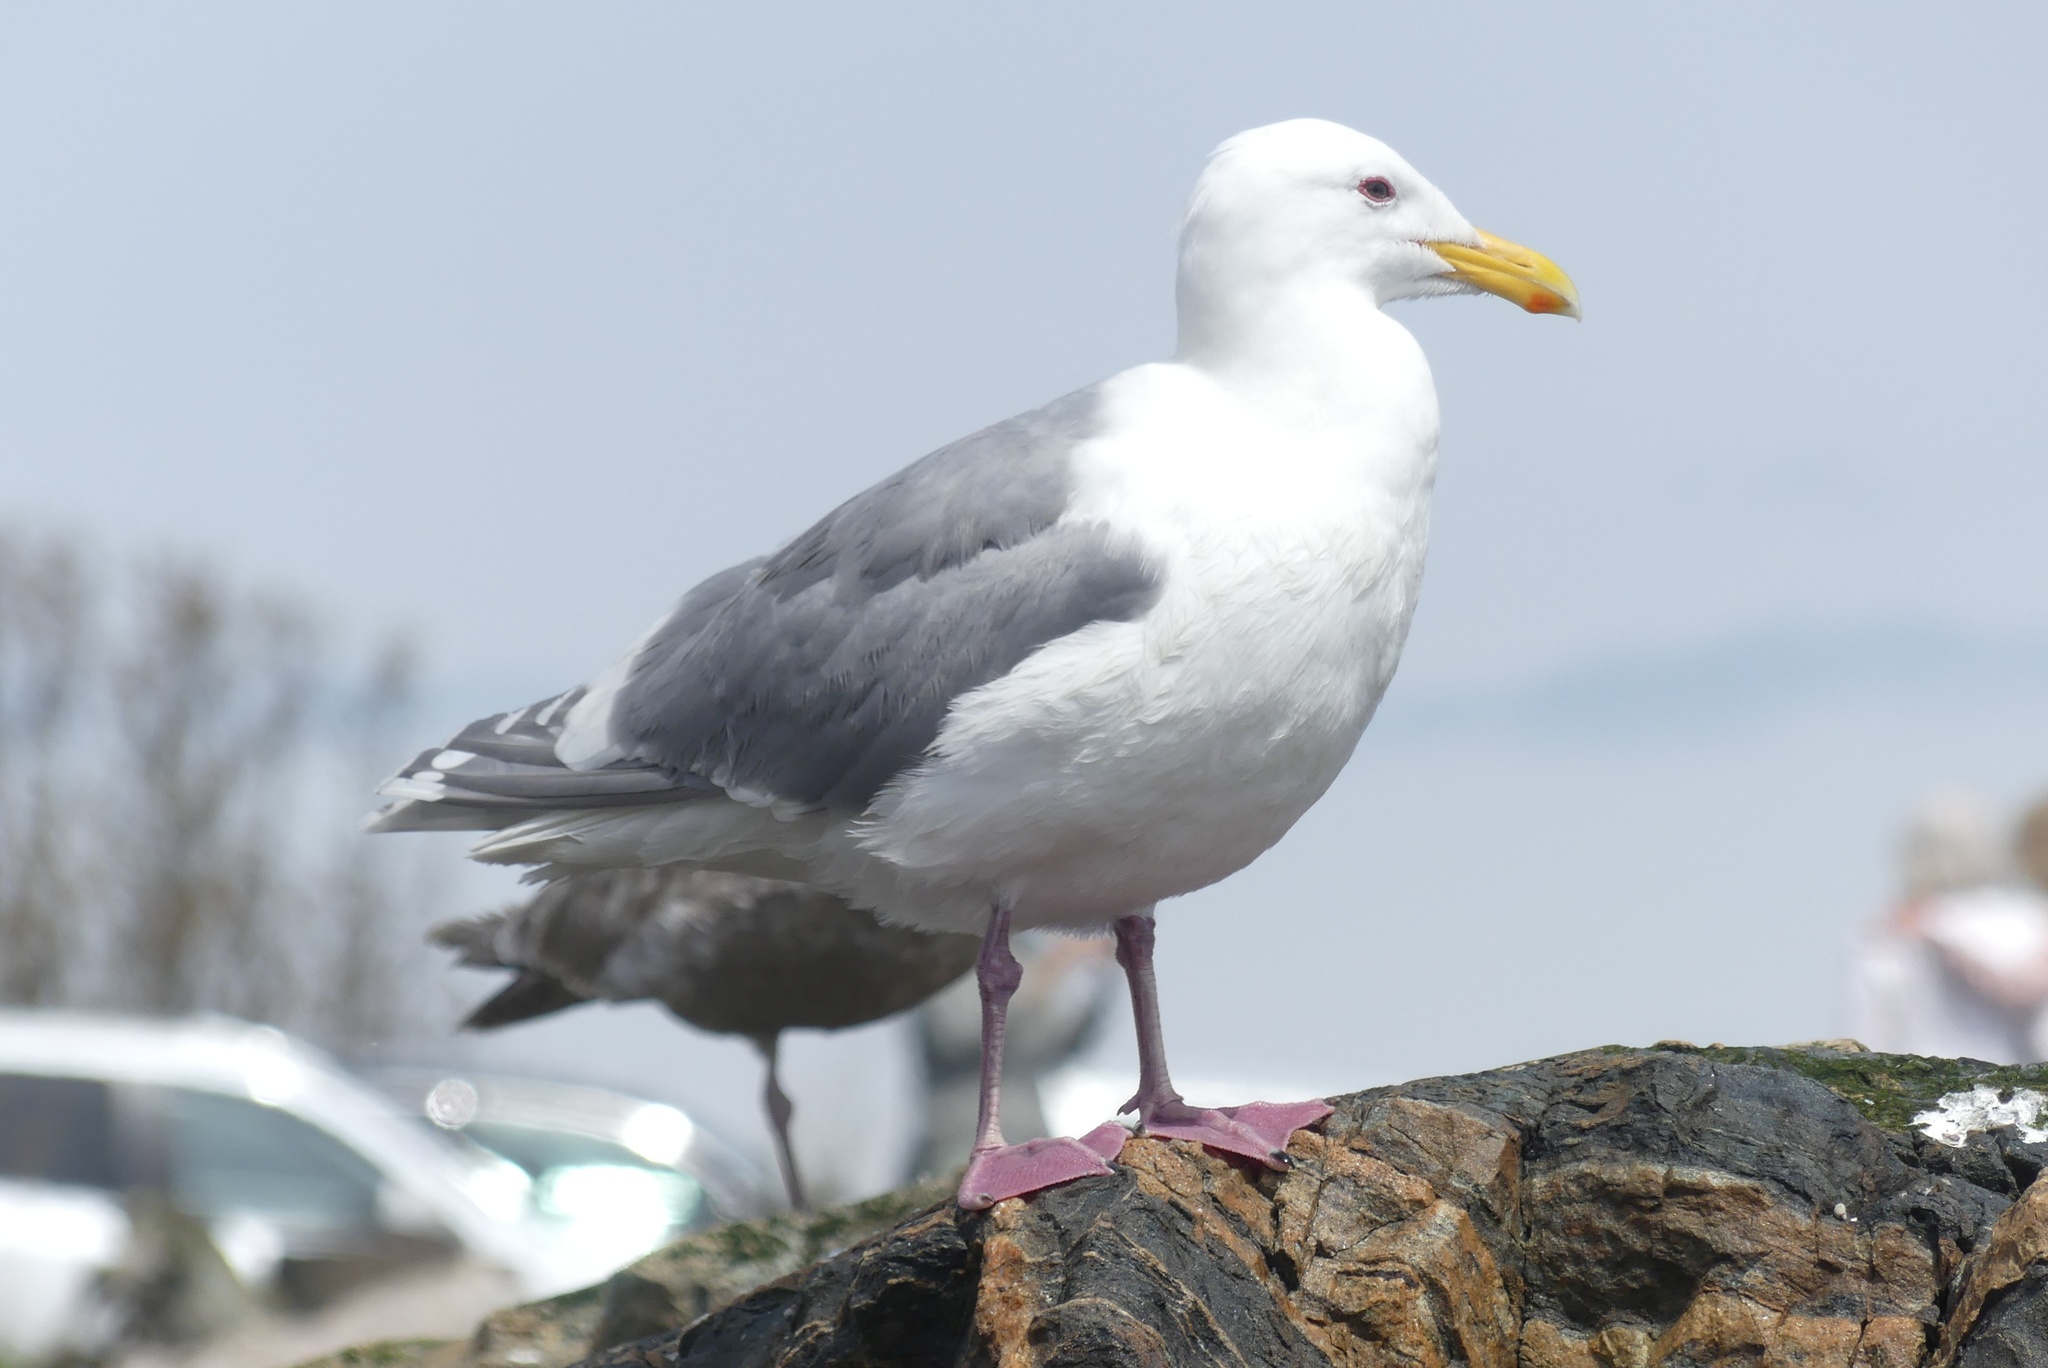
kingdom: Animalia
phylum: Chordata
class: Aves
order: Charadriiformes
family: Laridae
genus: Larus
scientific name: Larus glaucescens
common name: Glaucous-winged gull
